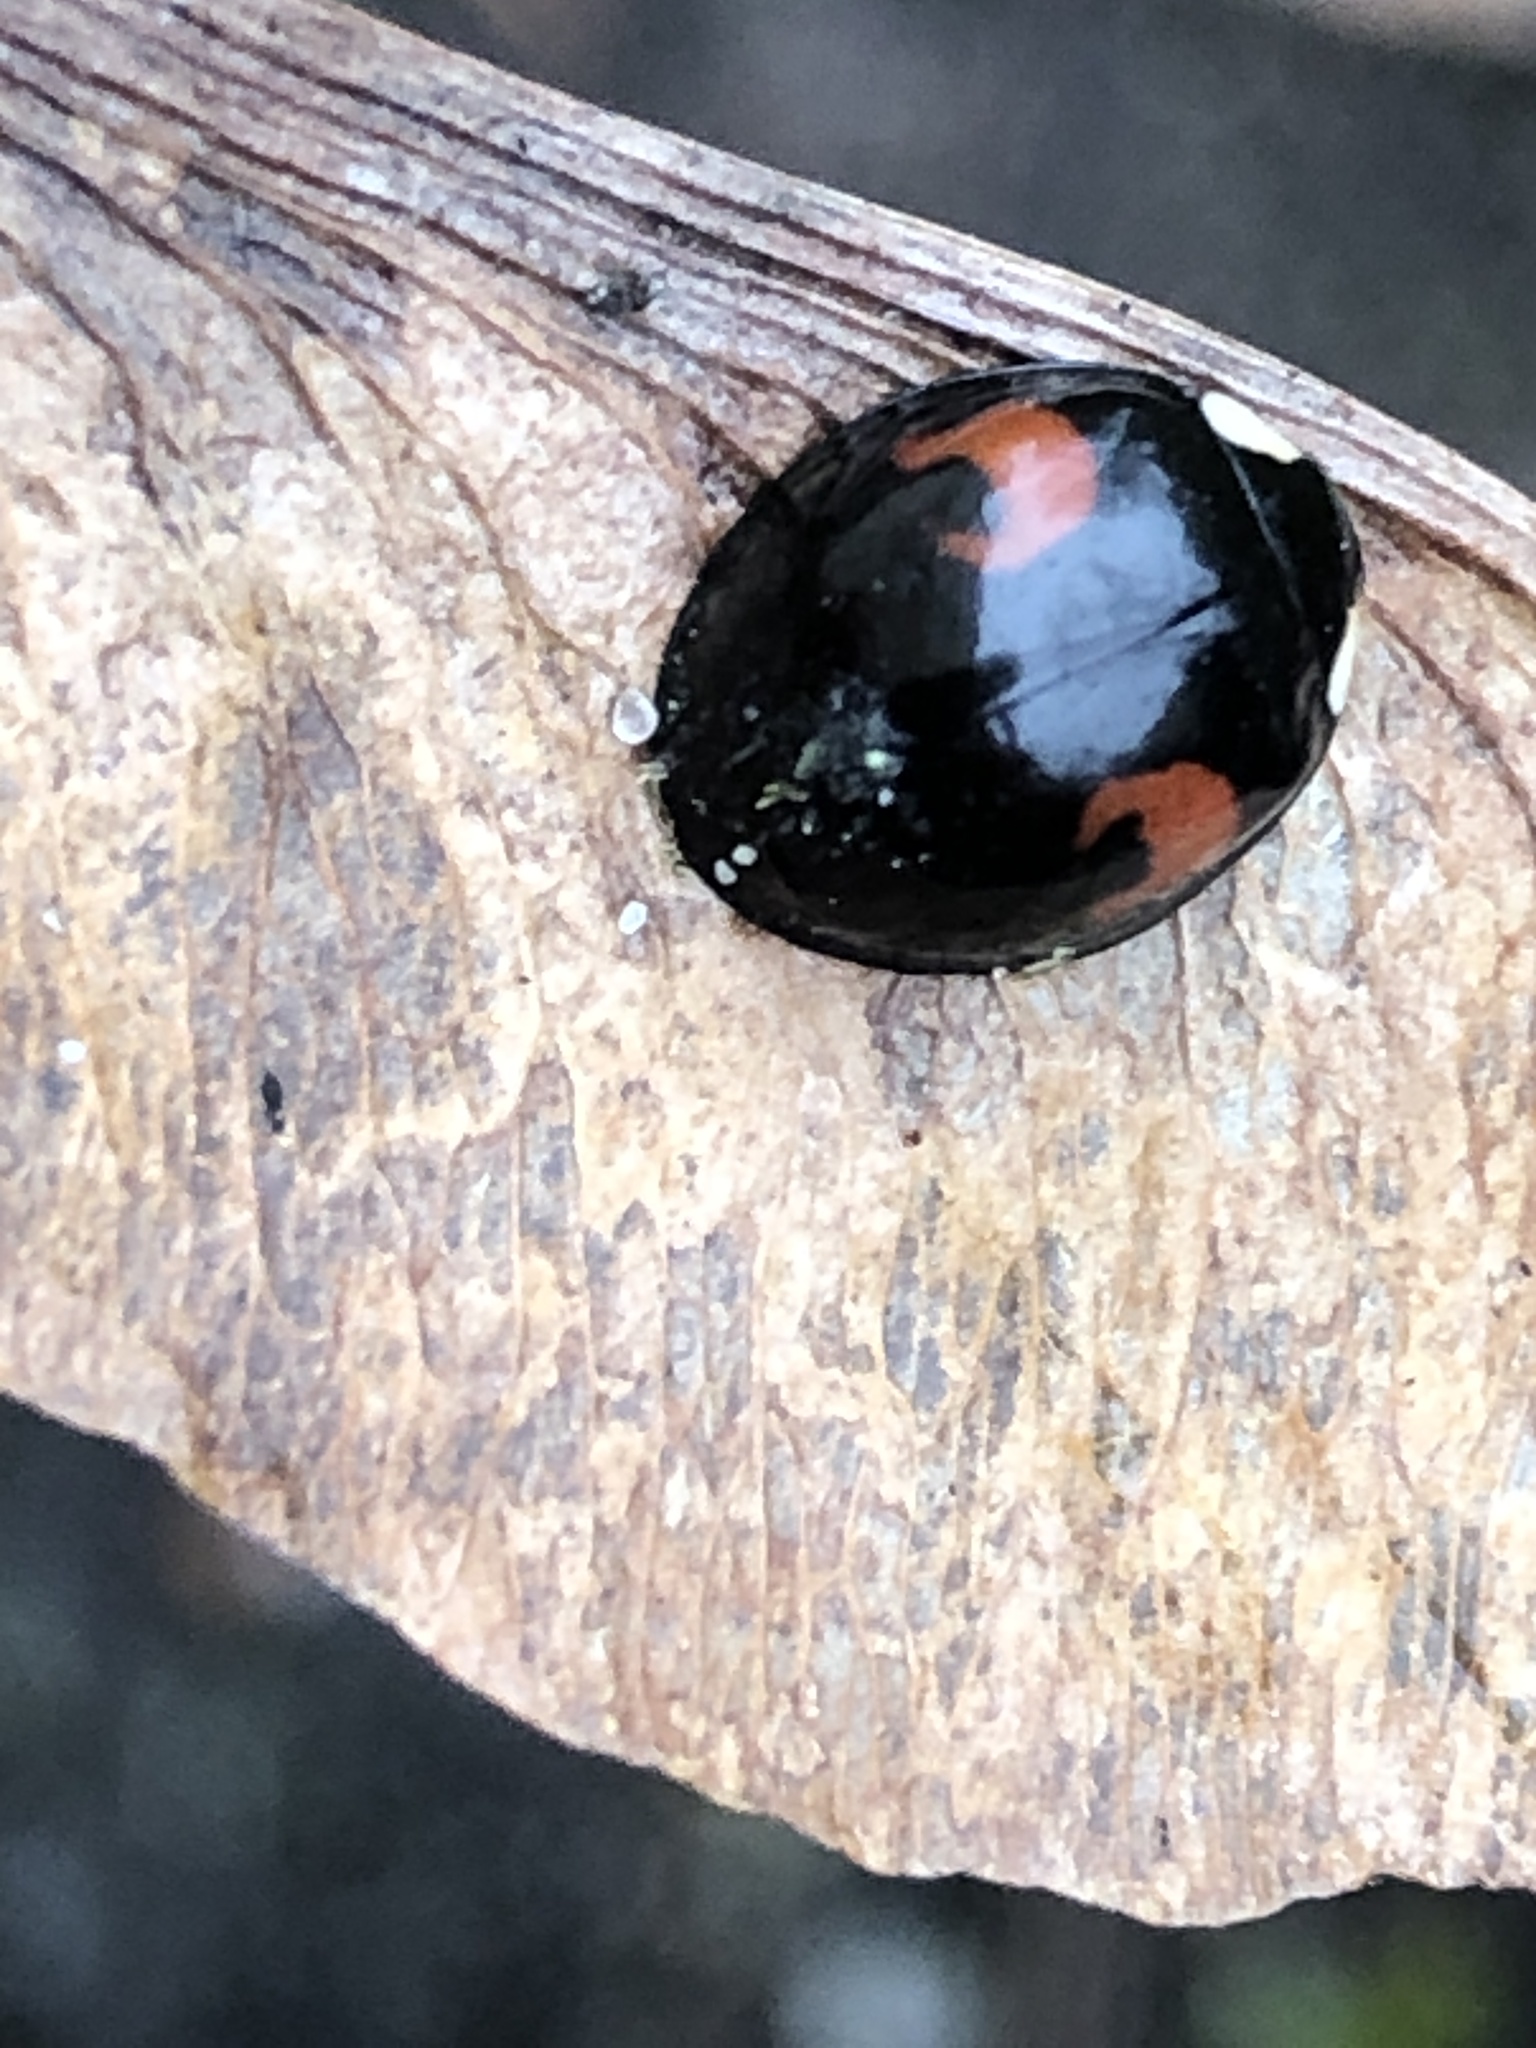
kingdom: Fungi
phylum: Ascomycota
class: Laboulbeniomycetes
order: Laboulbeniales
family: Laboulbeniaceae
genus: Hesperomyces
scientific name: Hesperomyces harmoniae
